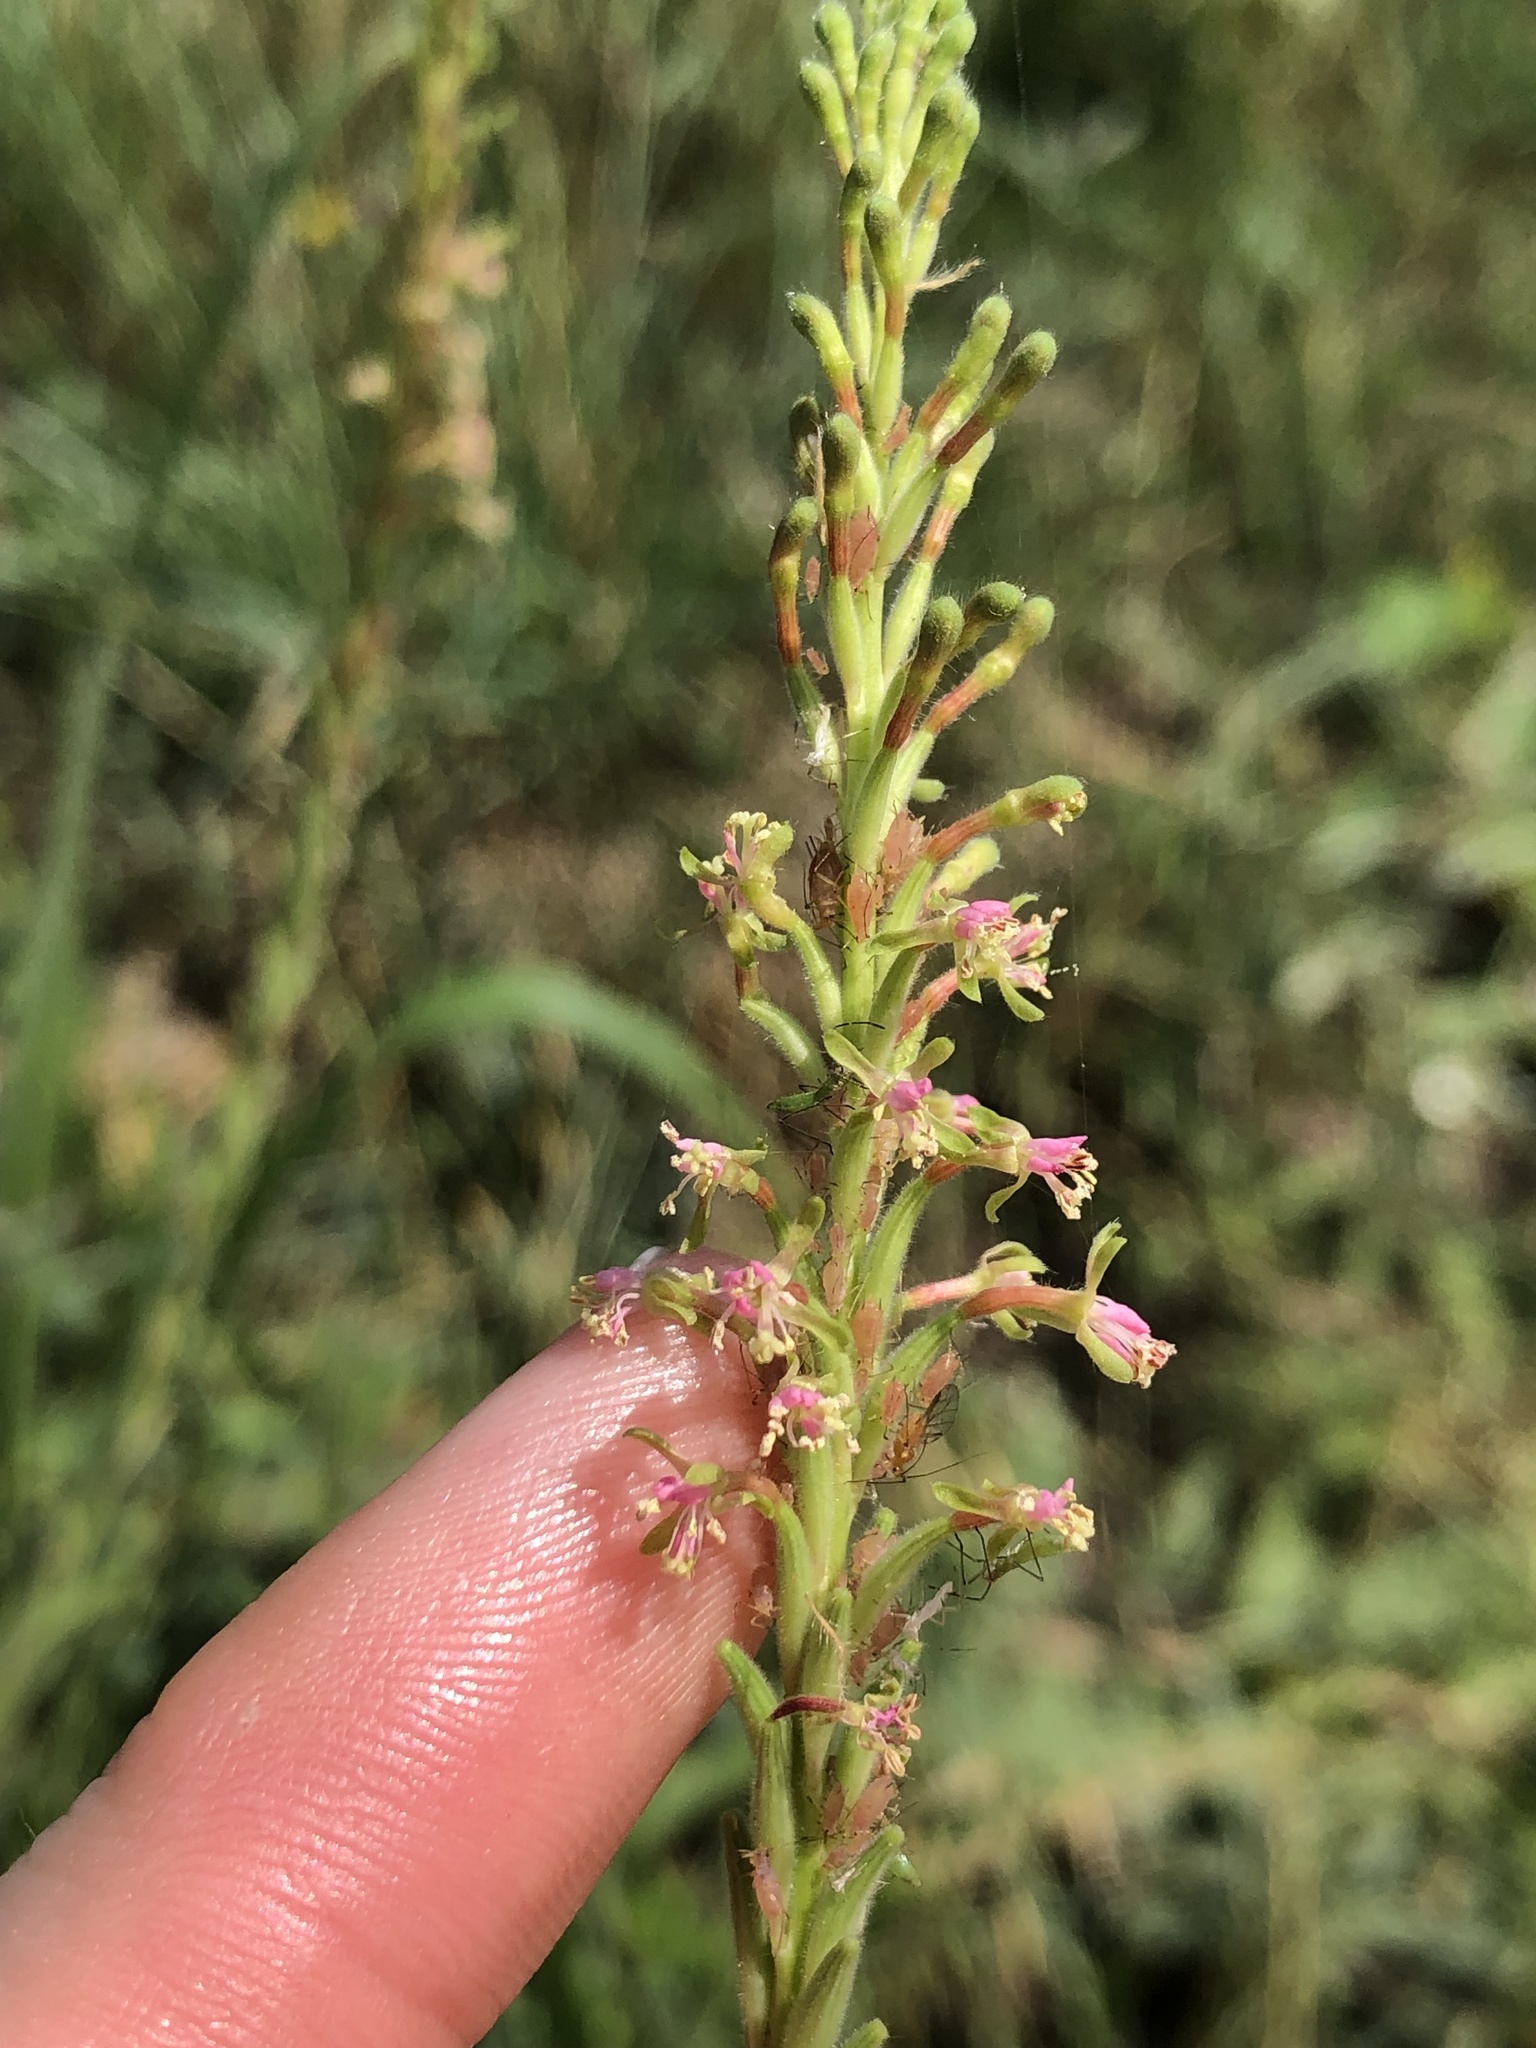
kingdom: Plantae
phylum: Tracheophyta
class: Magnoliopsida
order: Myrtales
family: Onagraceae
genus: Oenothera
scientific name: Oenothera curtiflora
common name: Velvetweed
